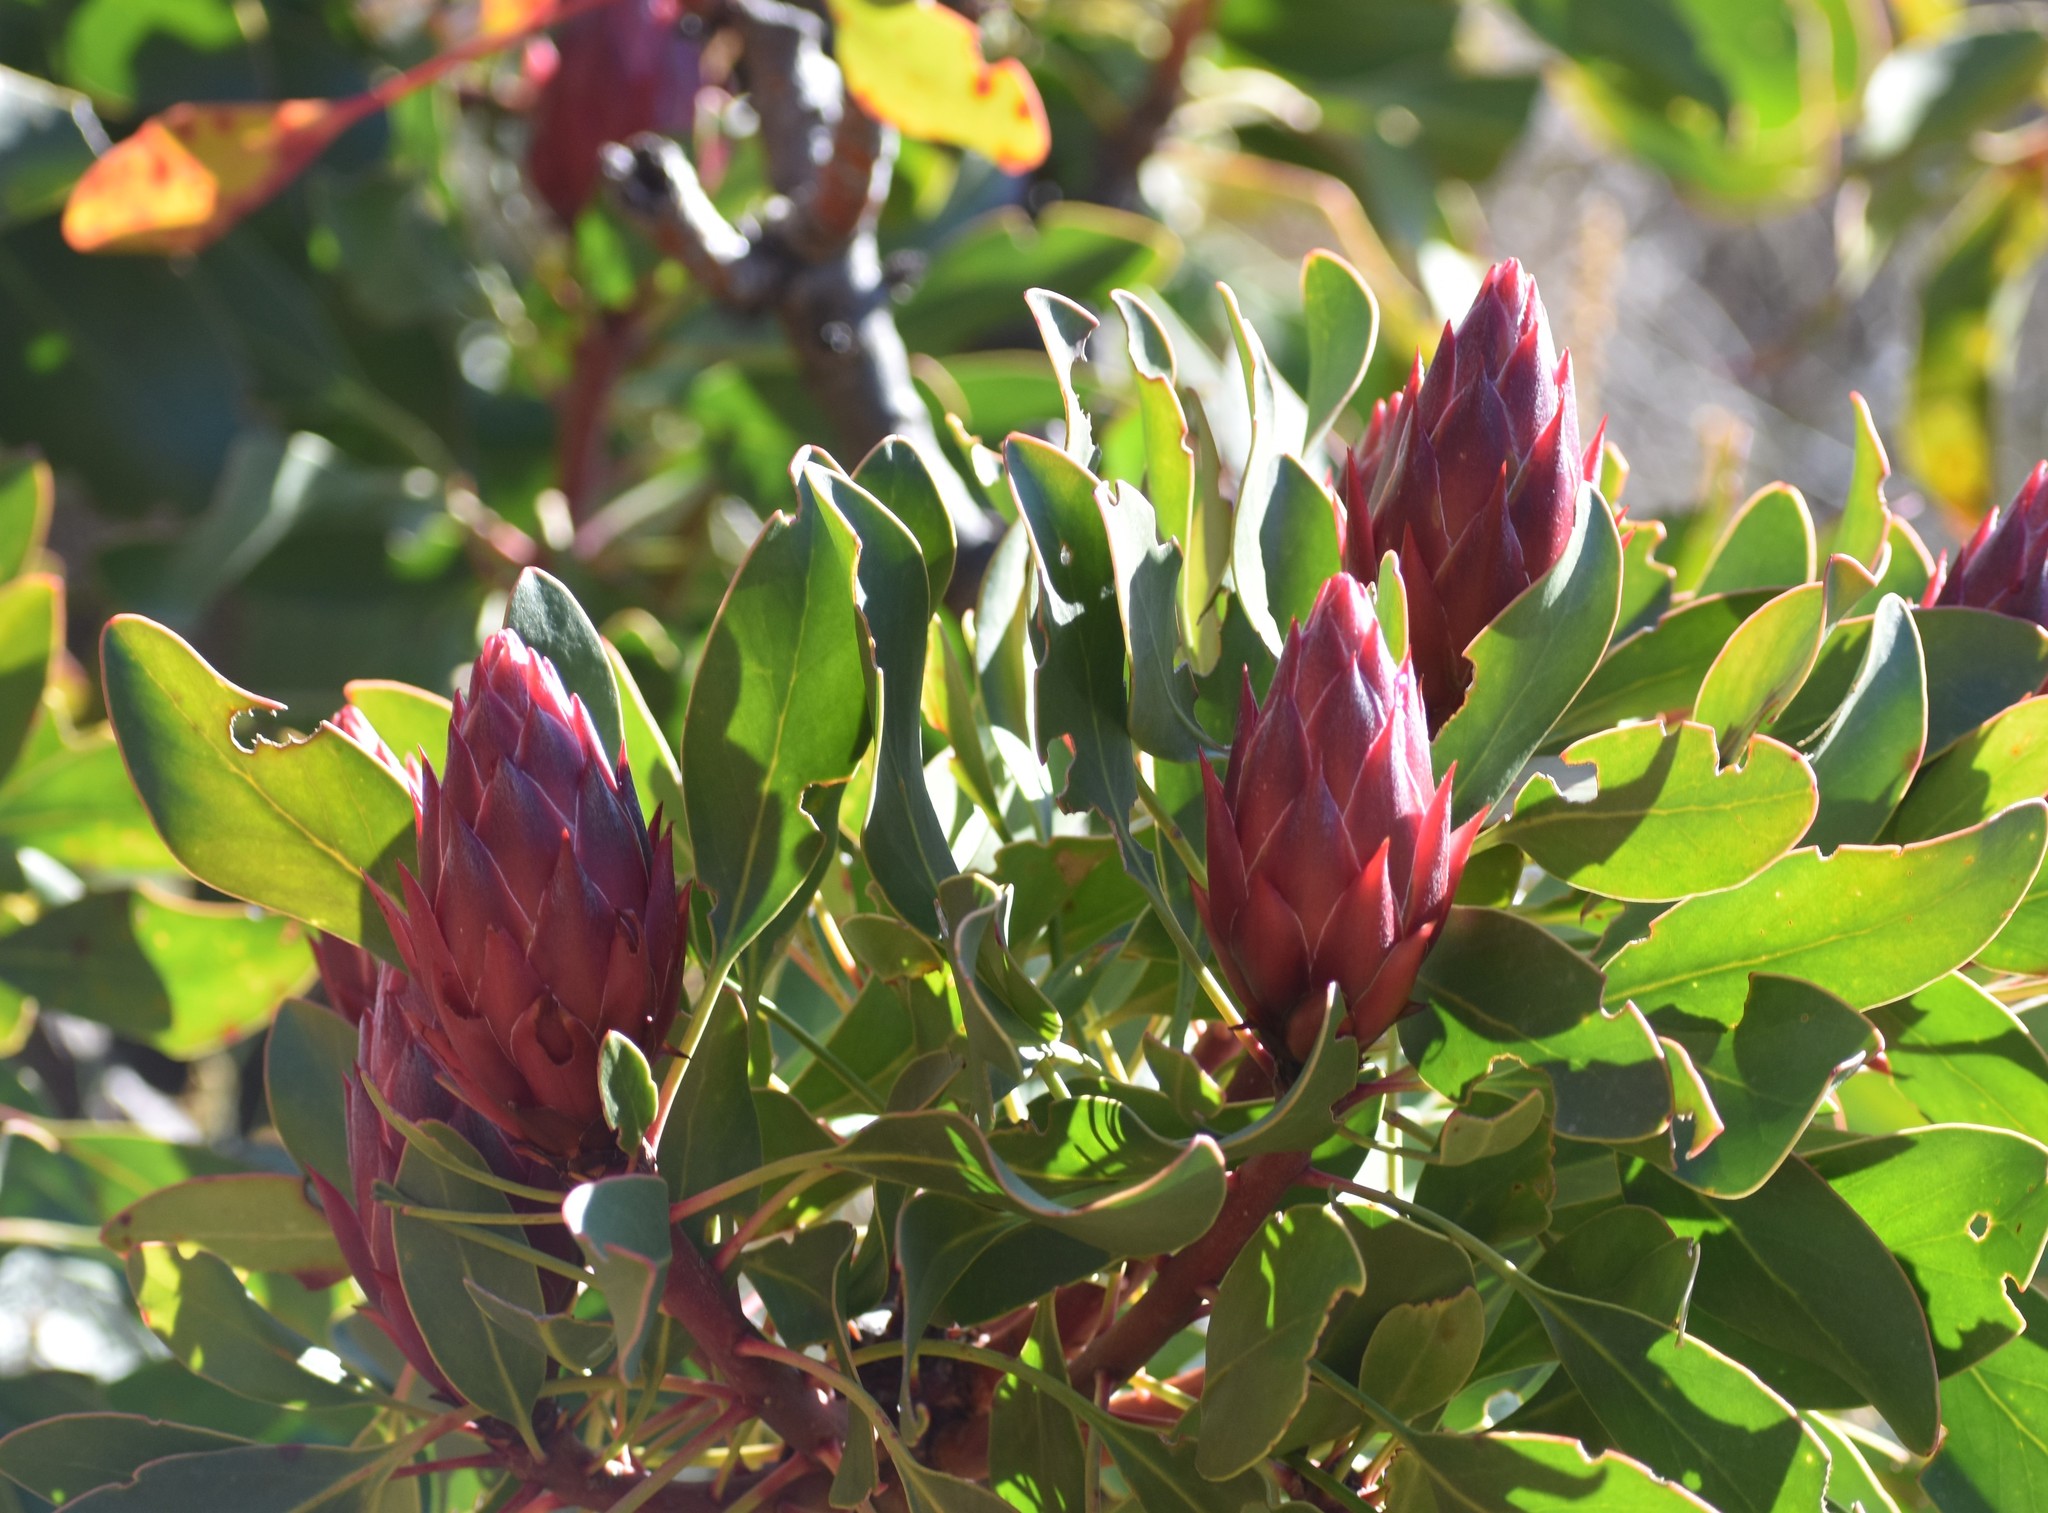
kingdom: Plantae
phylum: Tracheophyta
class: Magnoliopsida
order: Proteales
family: Proteaceae
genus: Protea
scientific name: Protea cynaroides
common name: King protea
